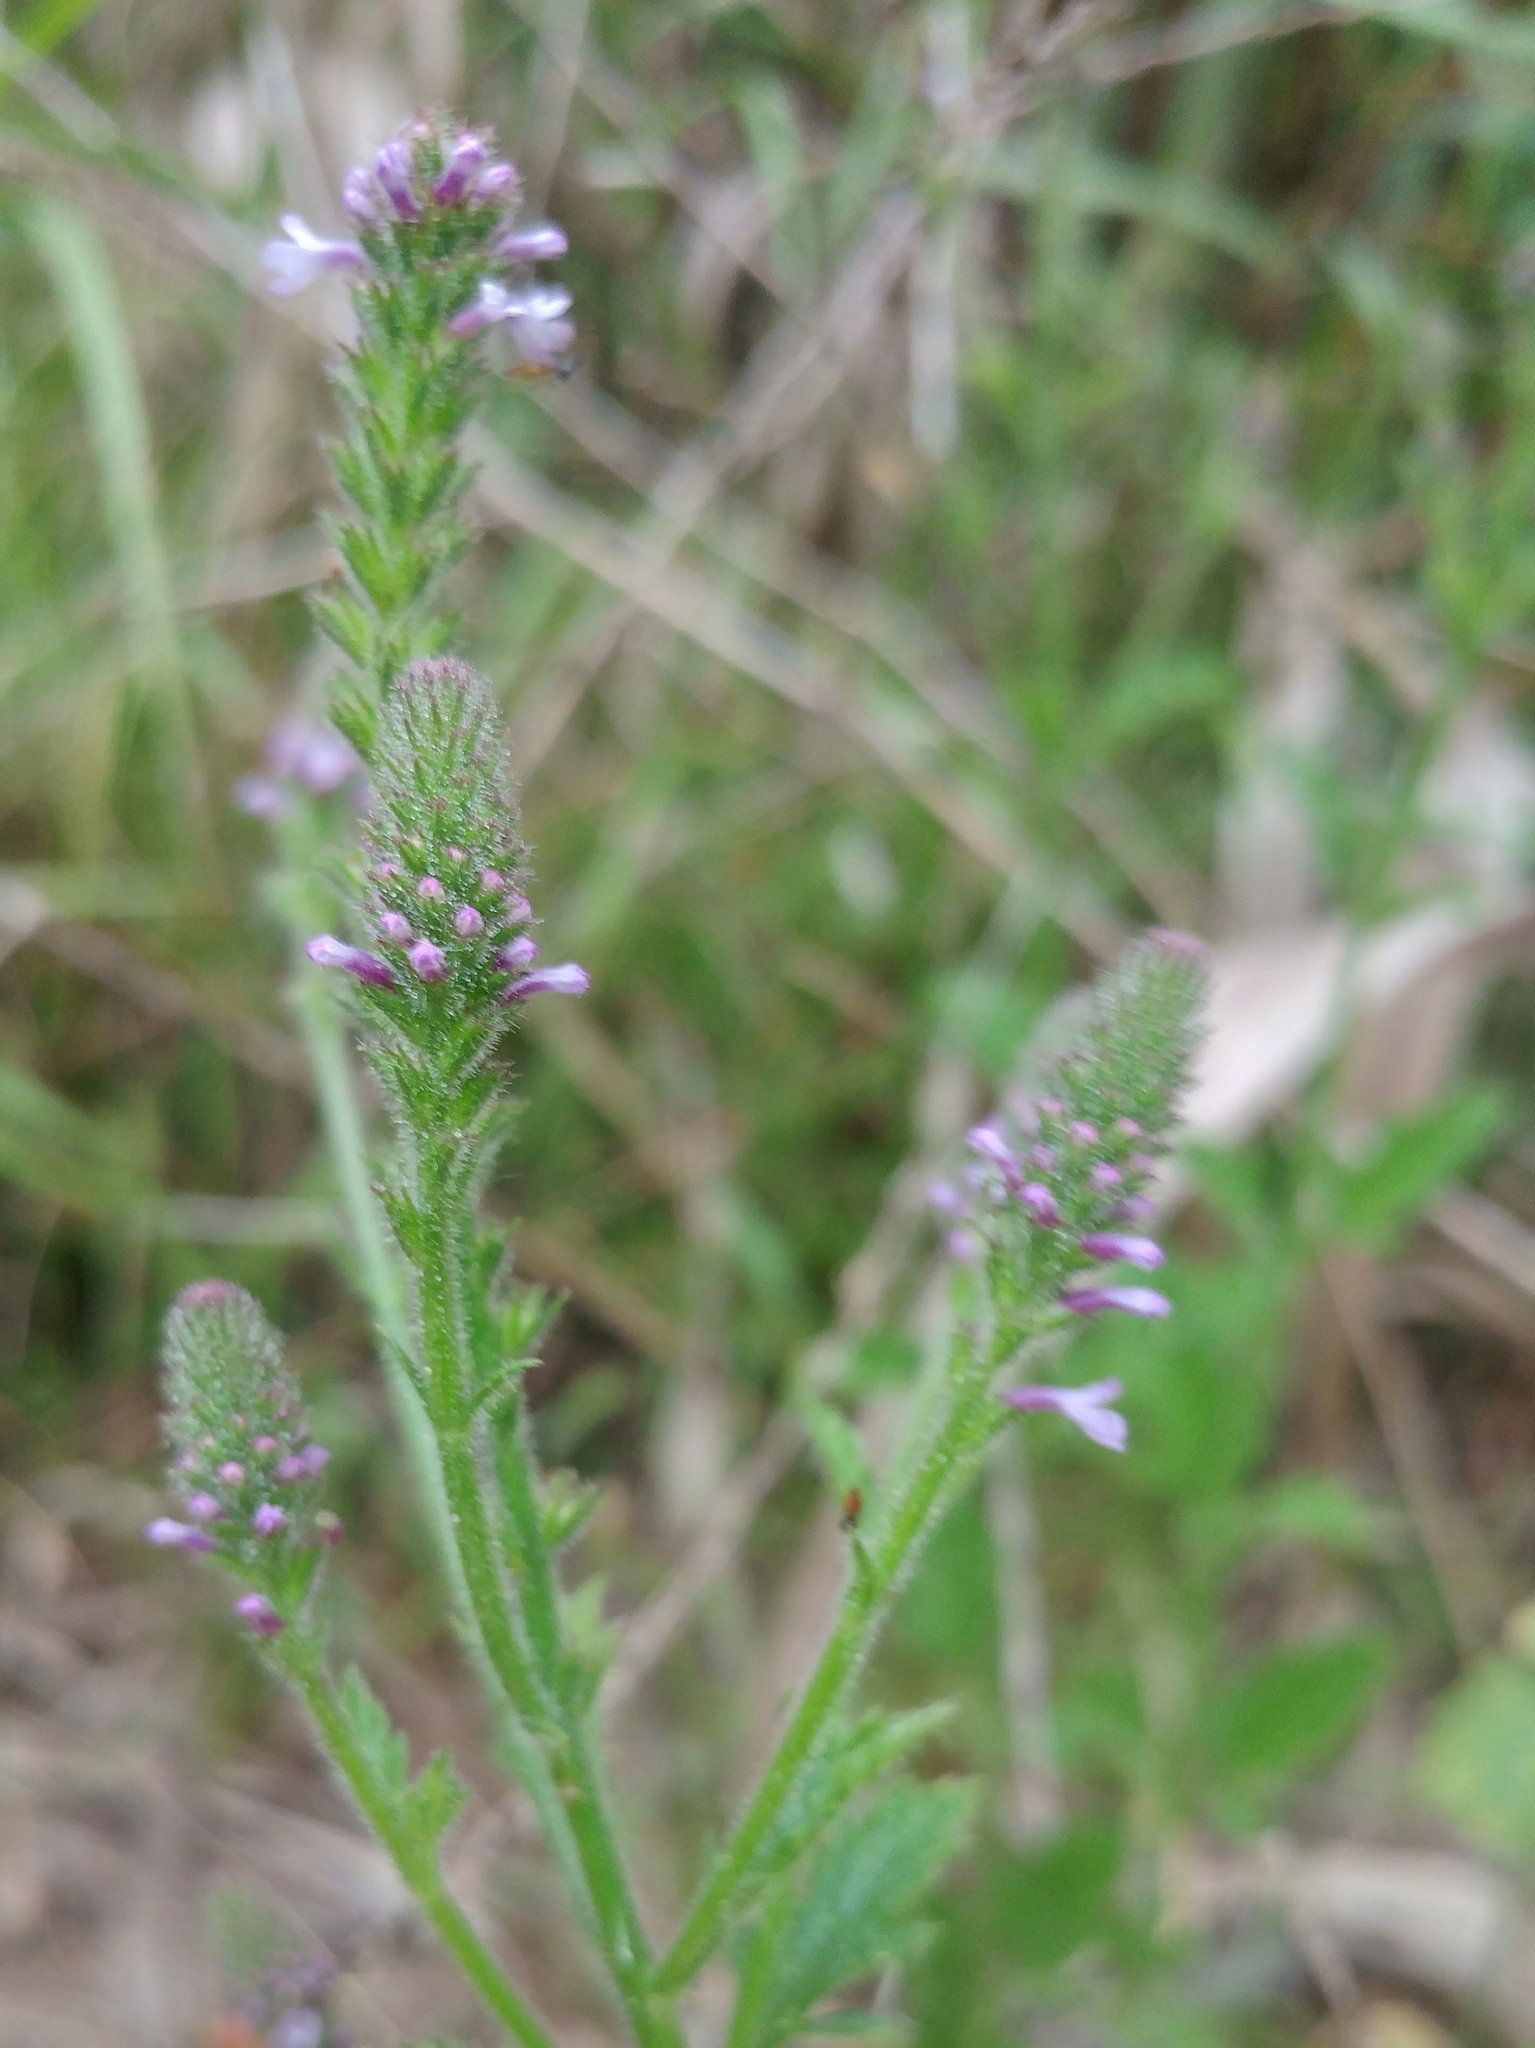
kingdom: Plantae
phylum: Tracheophyta
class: Magnoliopsida
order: Lamiales
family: Verbenaceae
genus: Verbena
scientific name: Verbena lasiostachys
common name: Vervain
